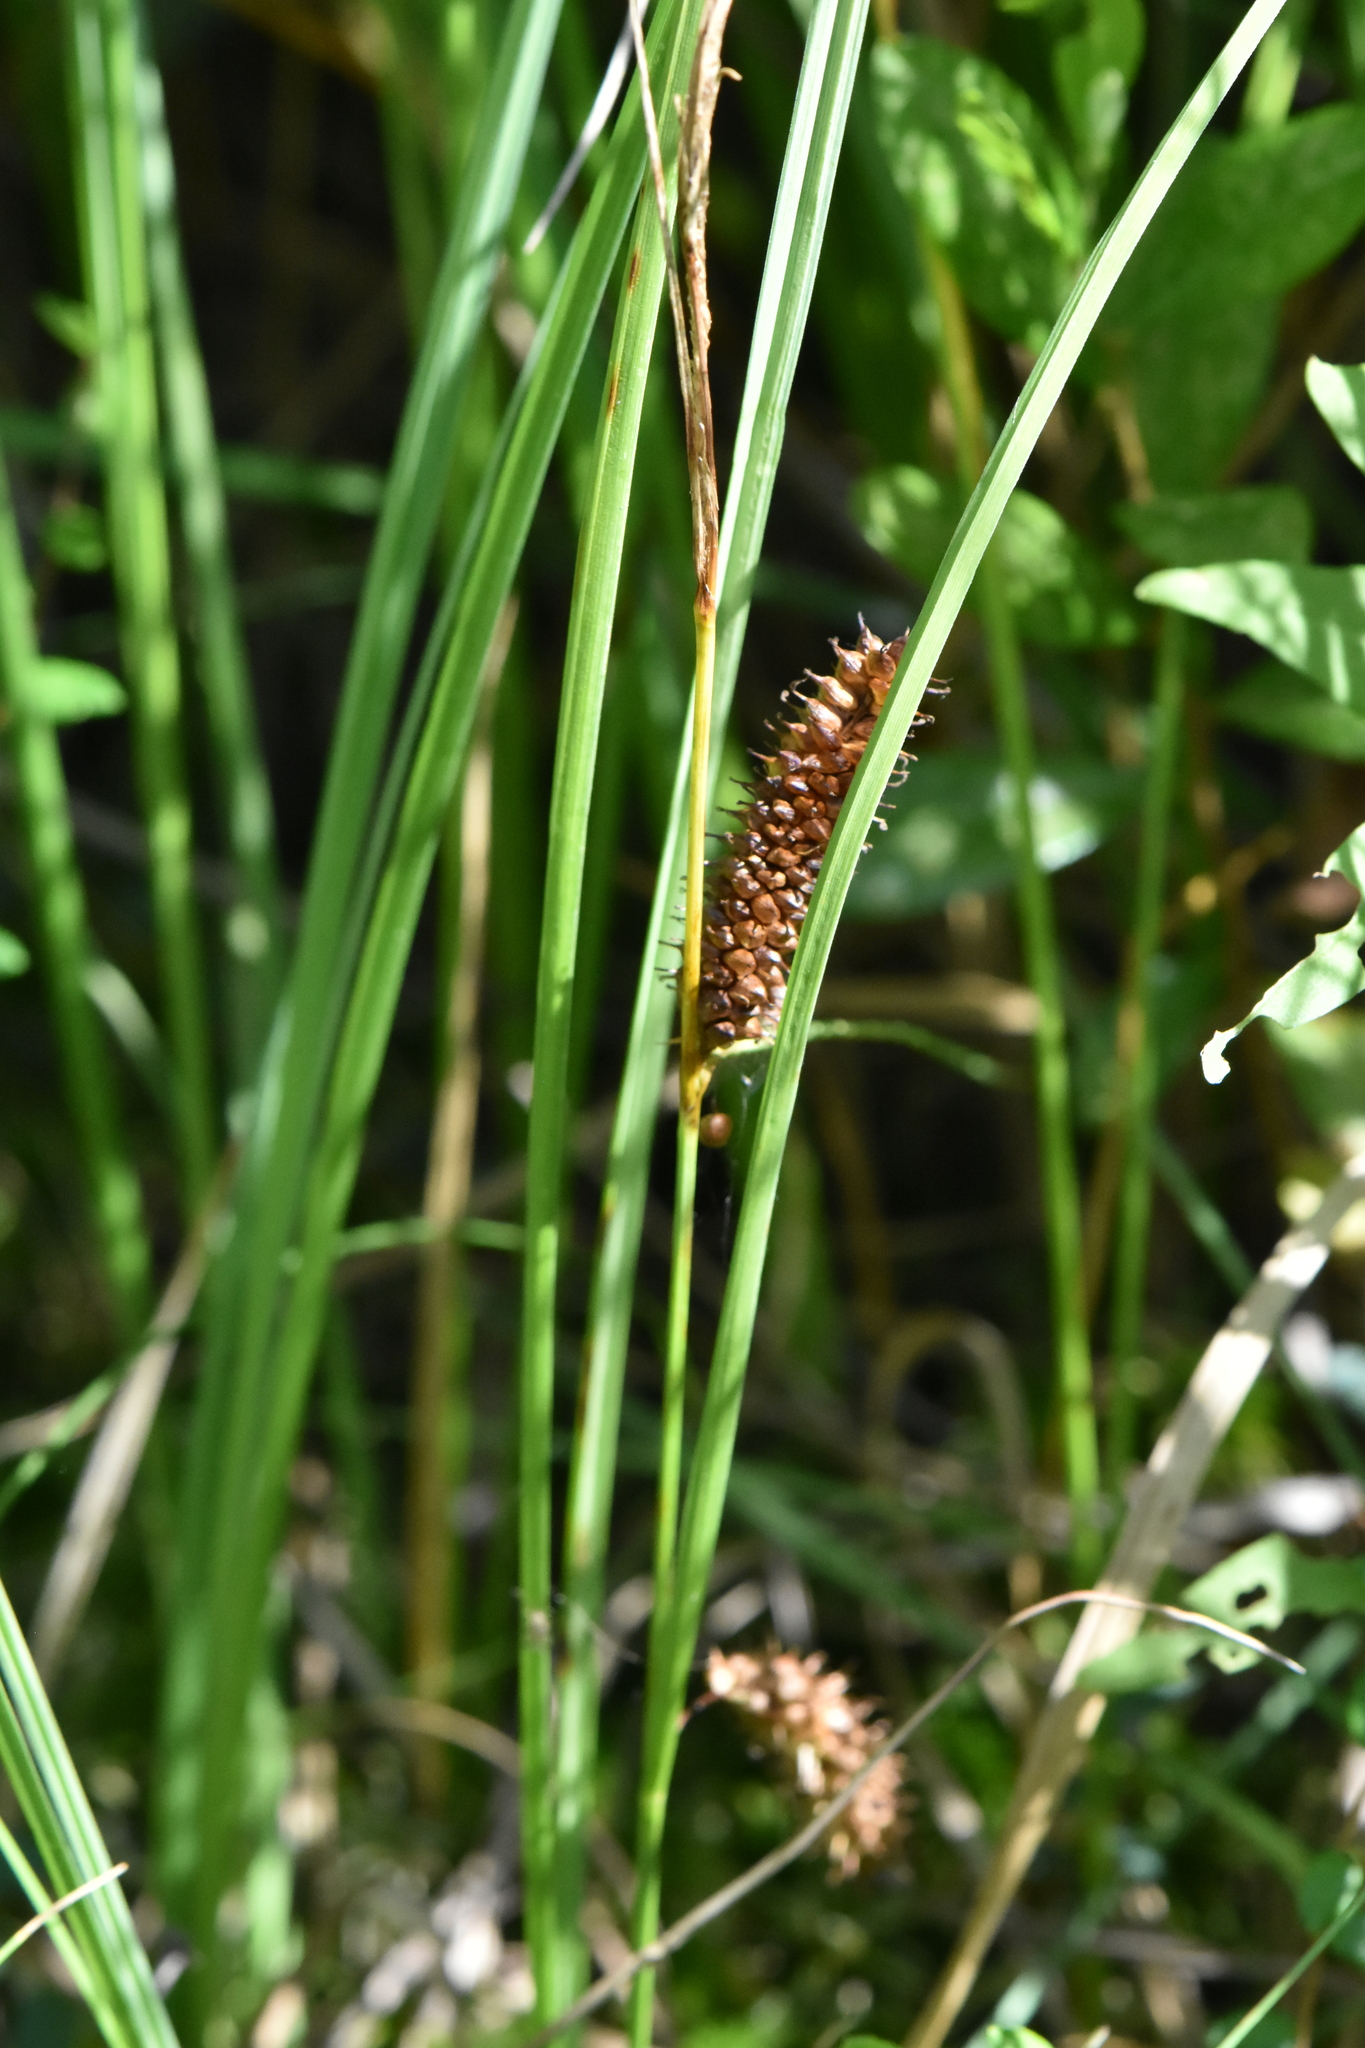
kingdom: Plantae
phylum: Tracheophyta
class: Liliopsida
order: Poales
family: Cyperaceae
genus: Carex
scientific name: Carex rostrata
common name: Bottle sedge
